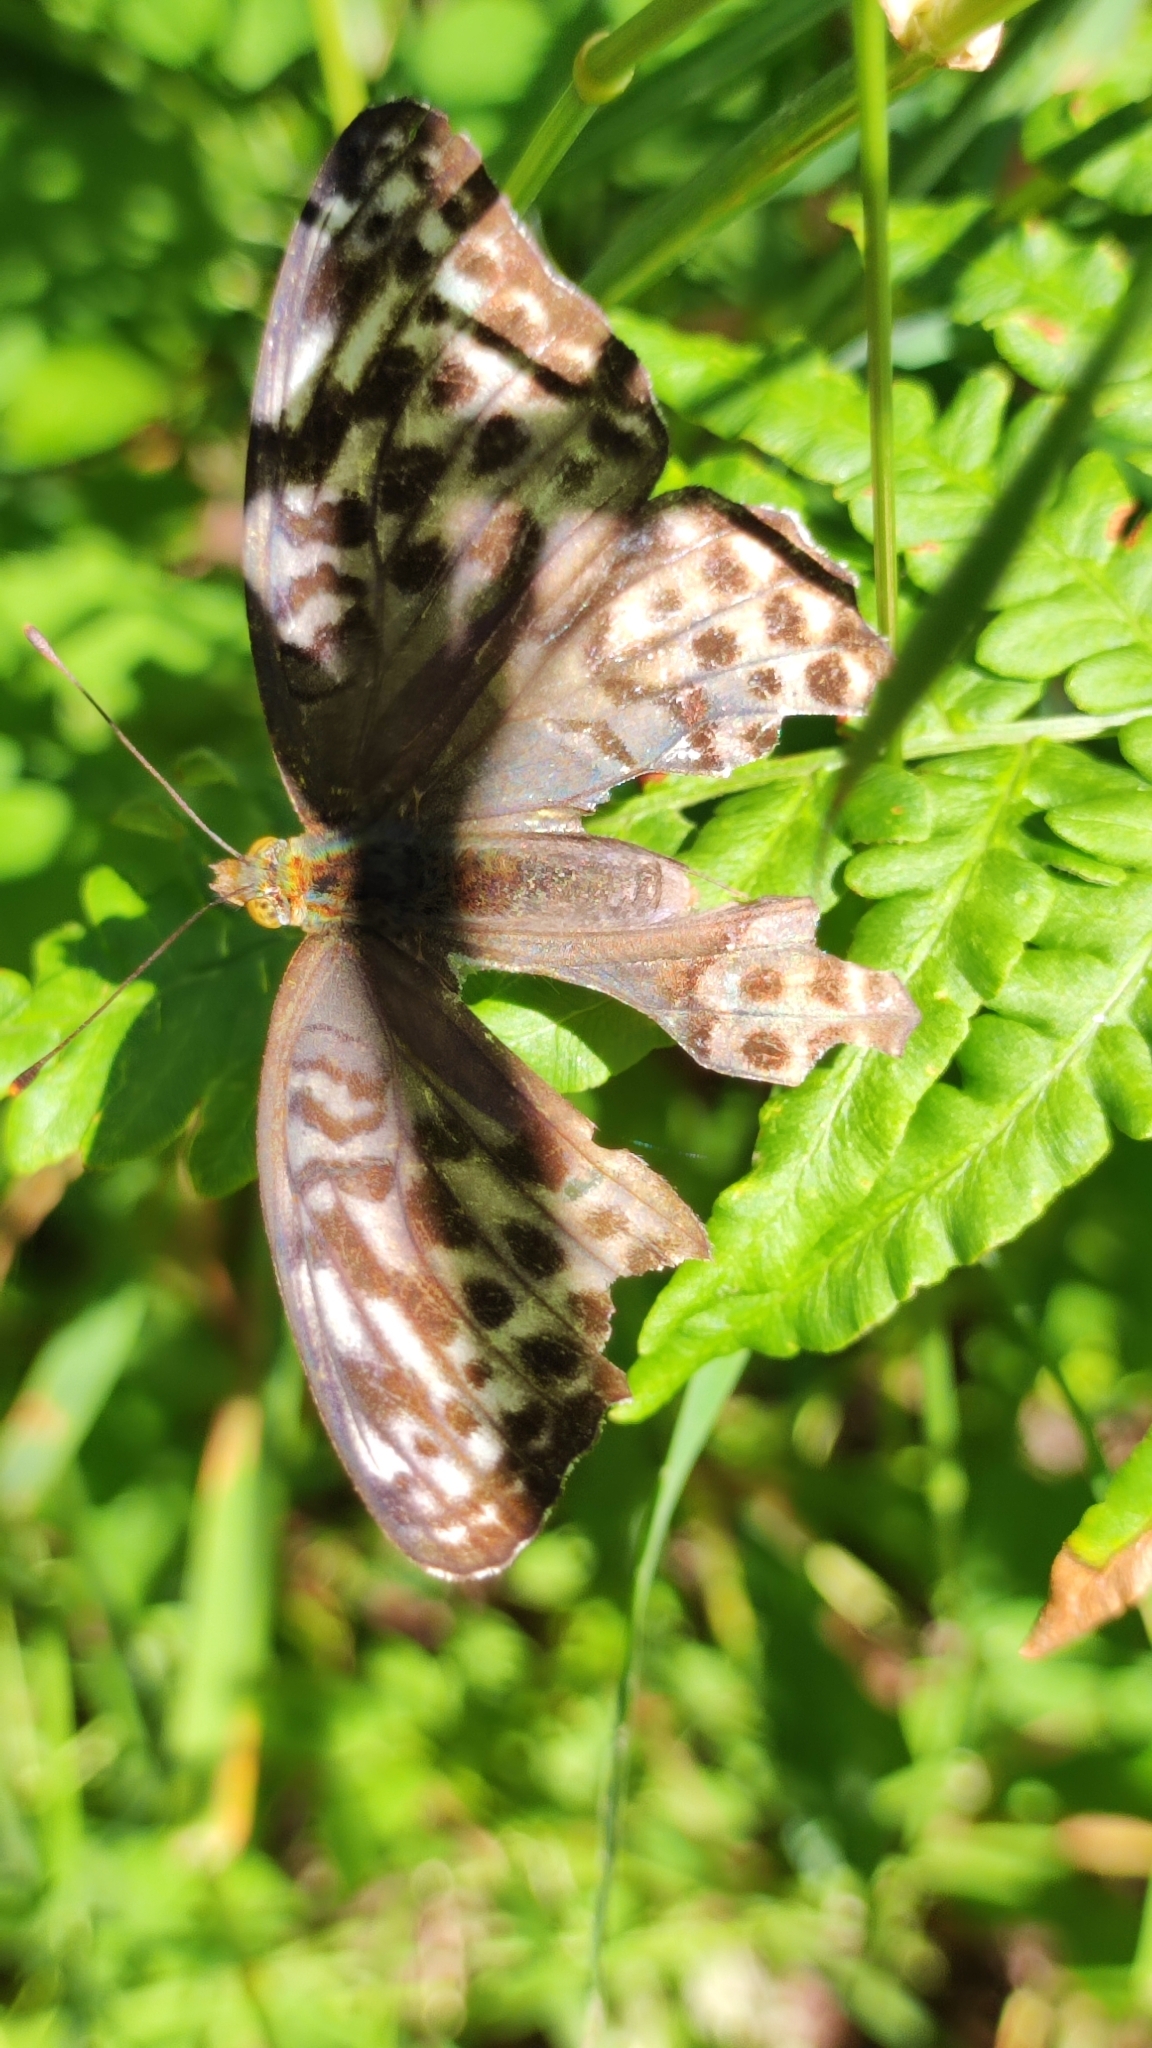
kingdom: Animalia
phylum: Arthropoda
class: Insecta
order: Lepidoptera
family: Nymphalidae
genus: Argynnis
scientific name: Argynnis paphia
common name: Silver-washed fritillary
